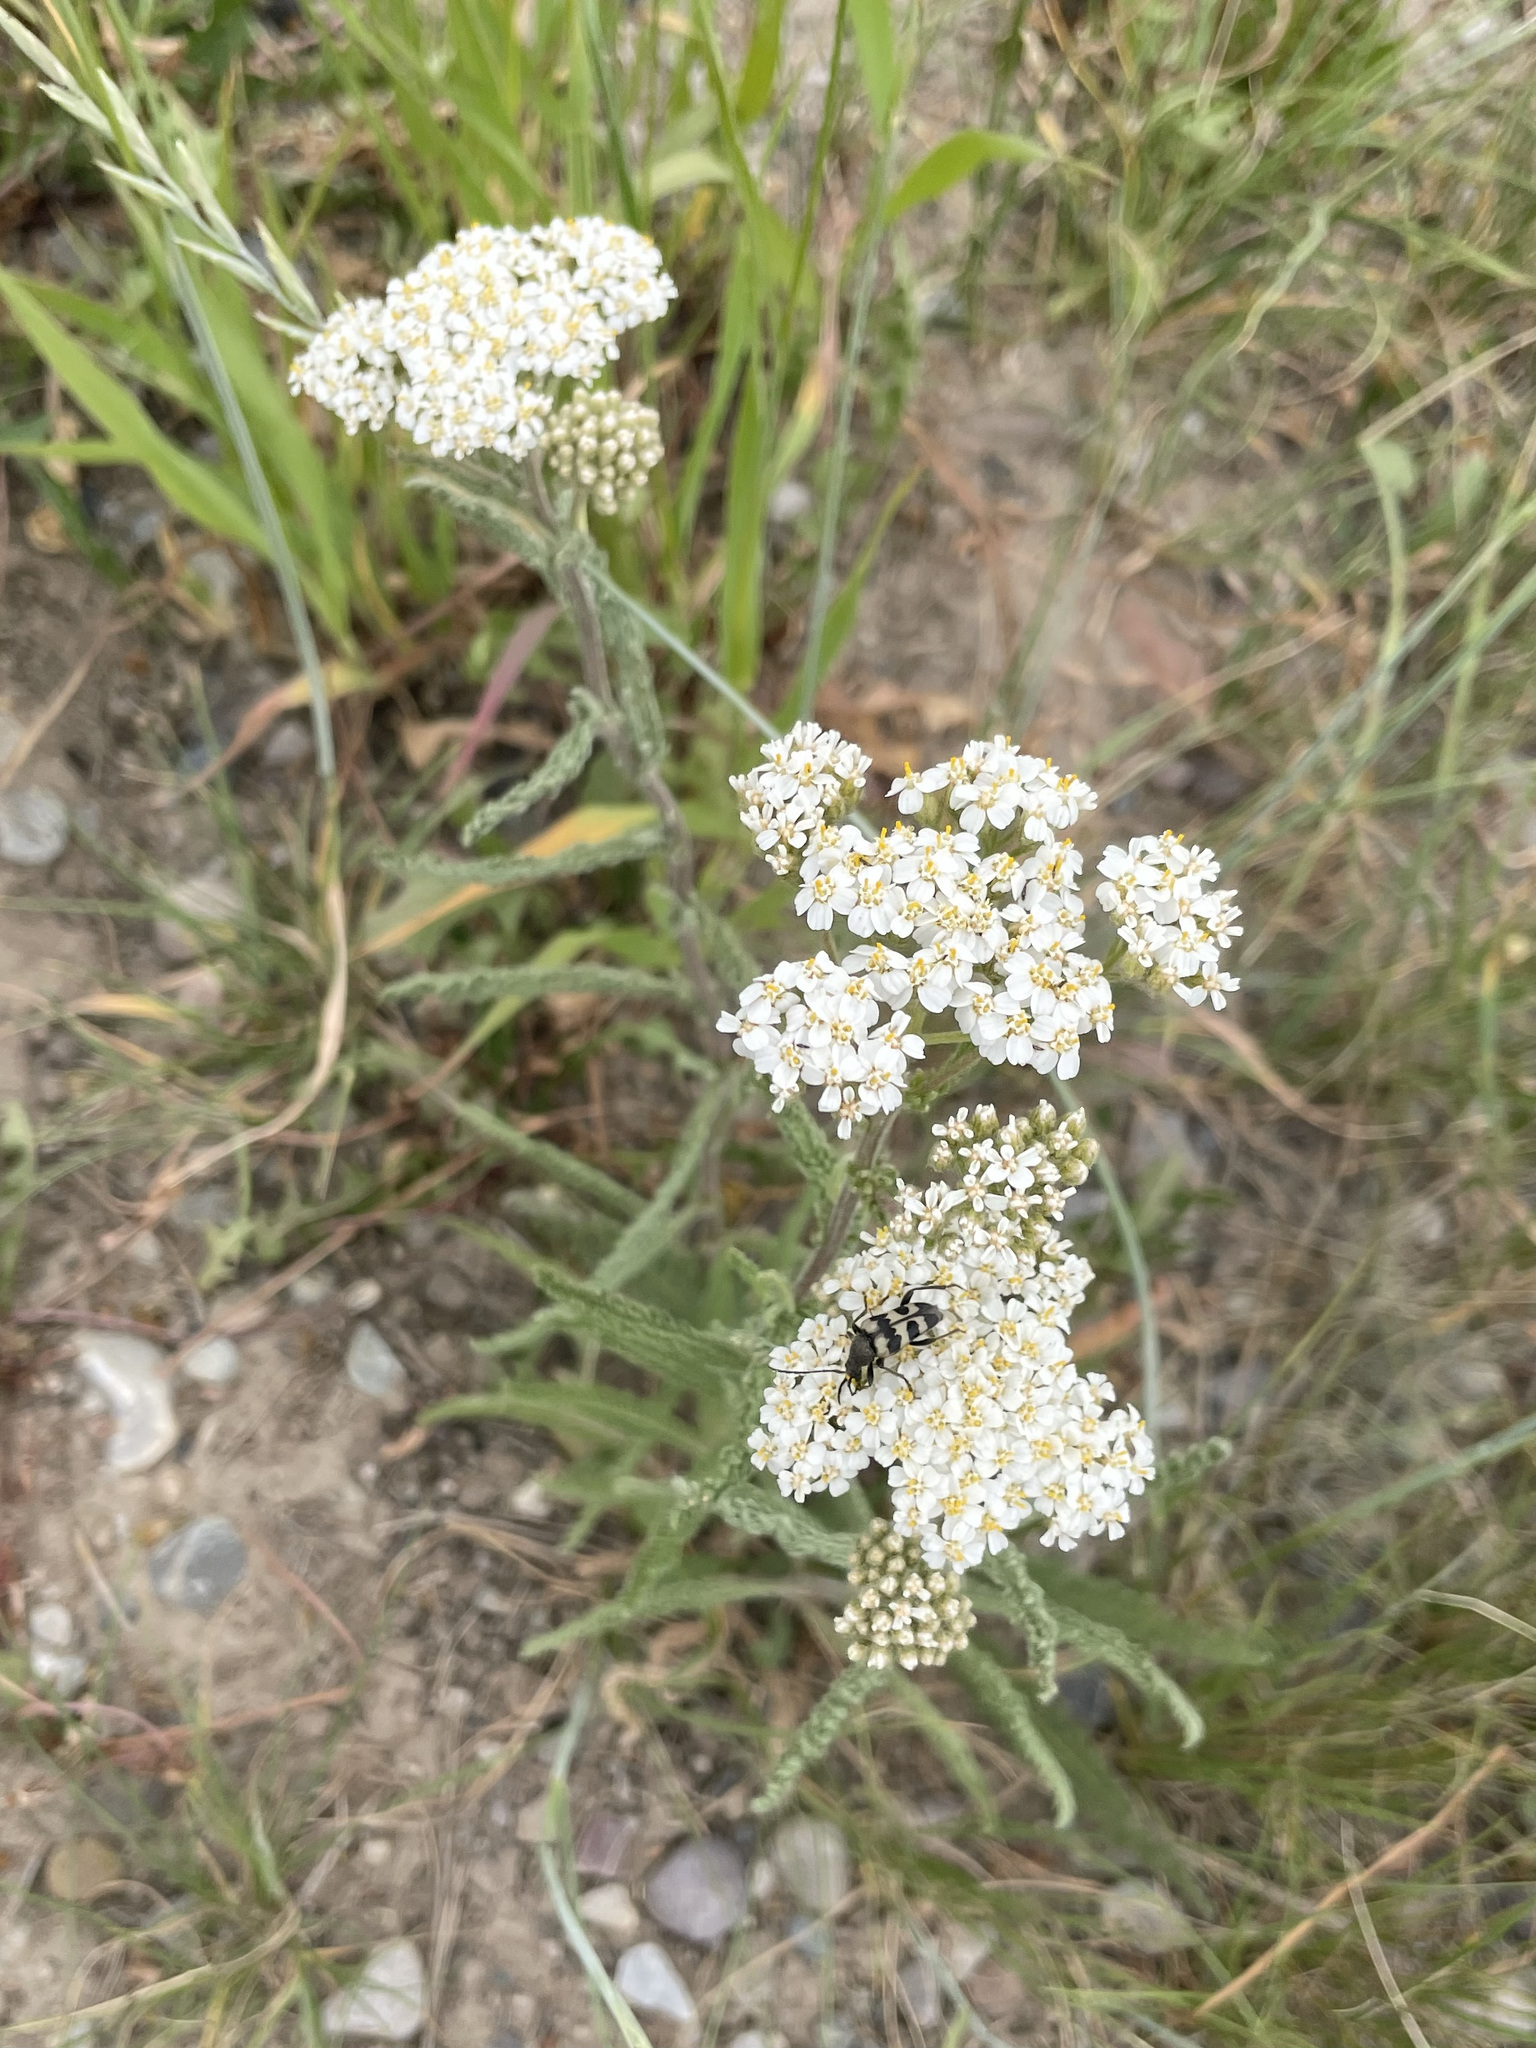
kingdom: Plantae
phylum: Tracheophyta
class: Magnoliopsida
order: Asterales
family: Asteraceae
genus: Achillea
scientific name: Achillea millefolium
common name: Yarrow
